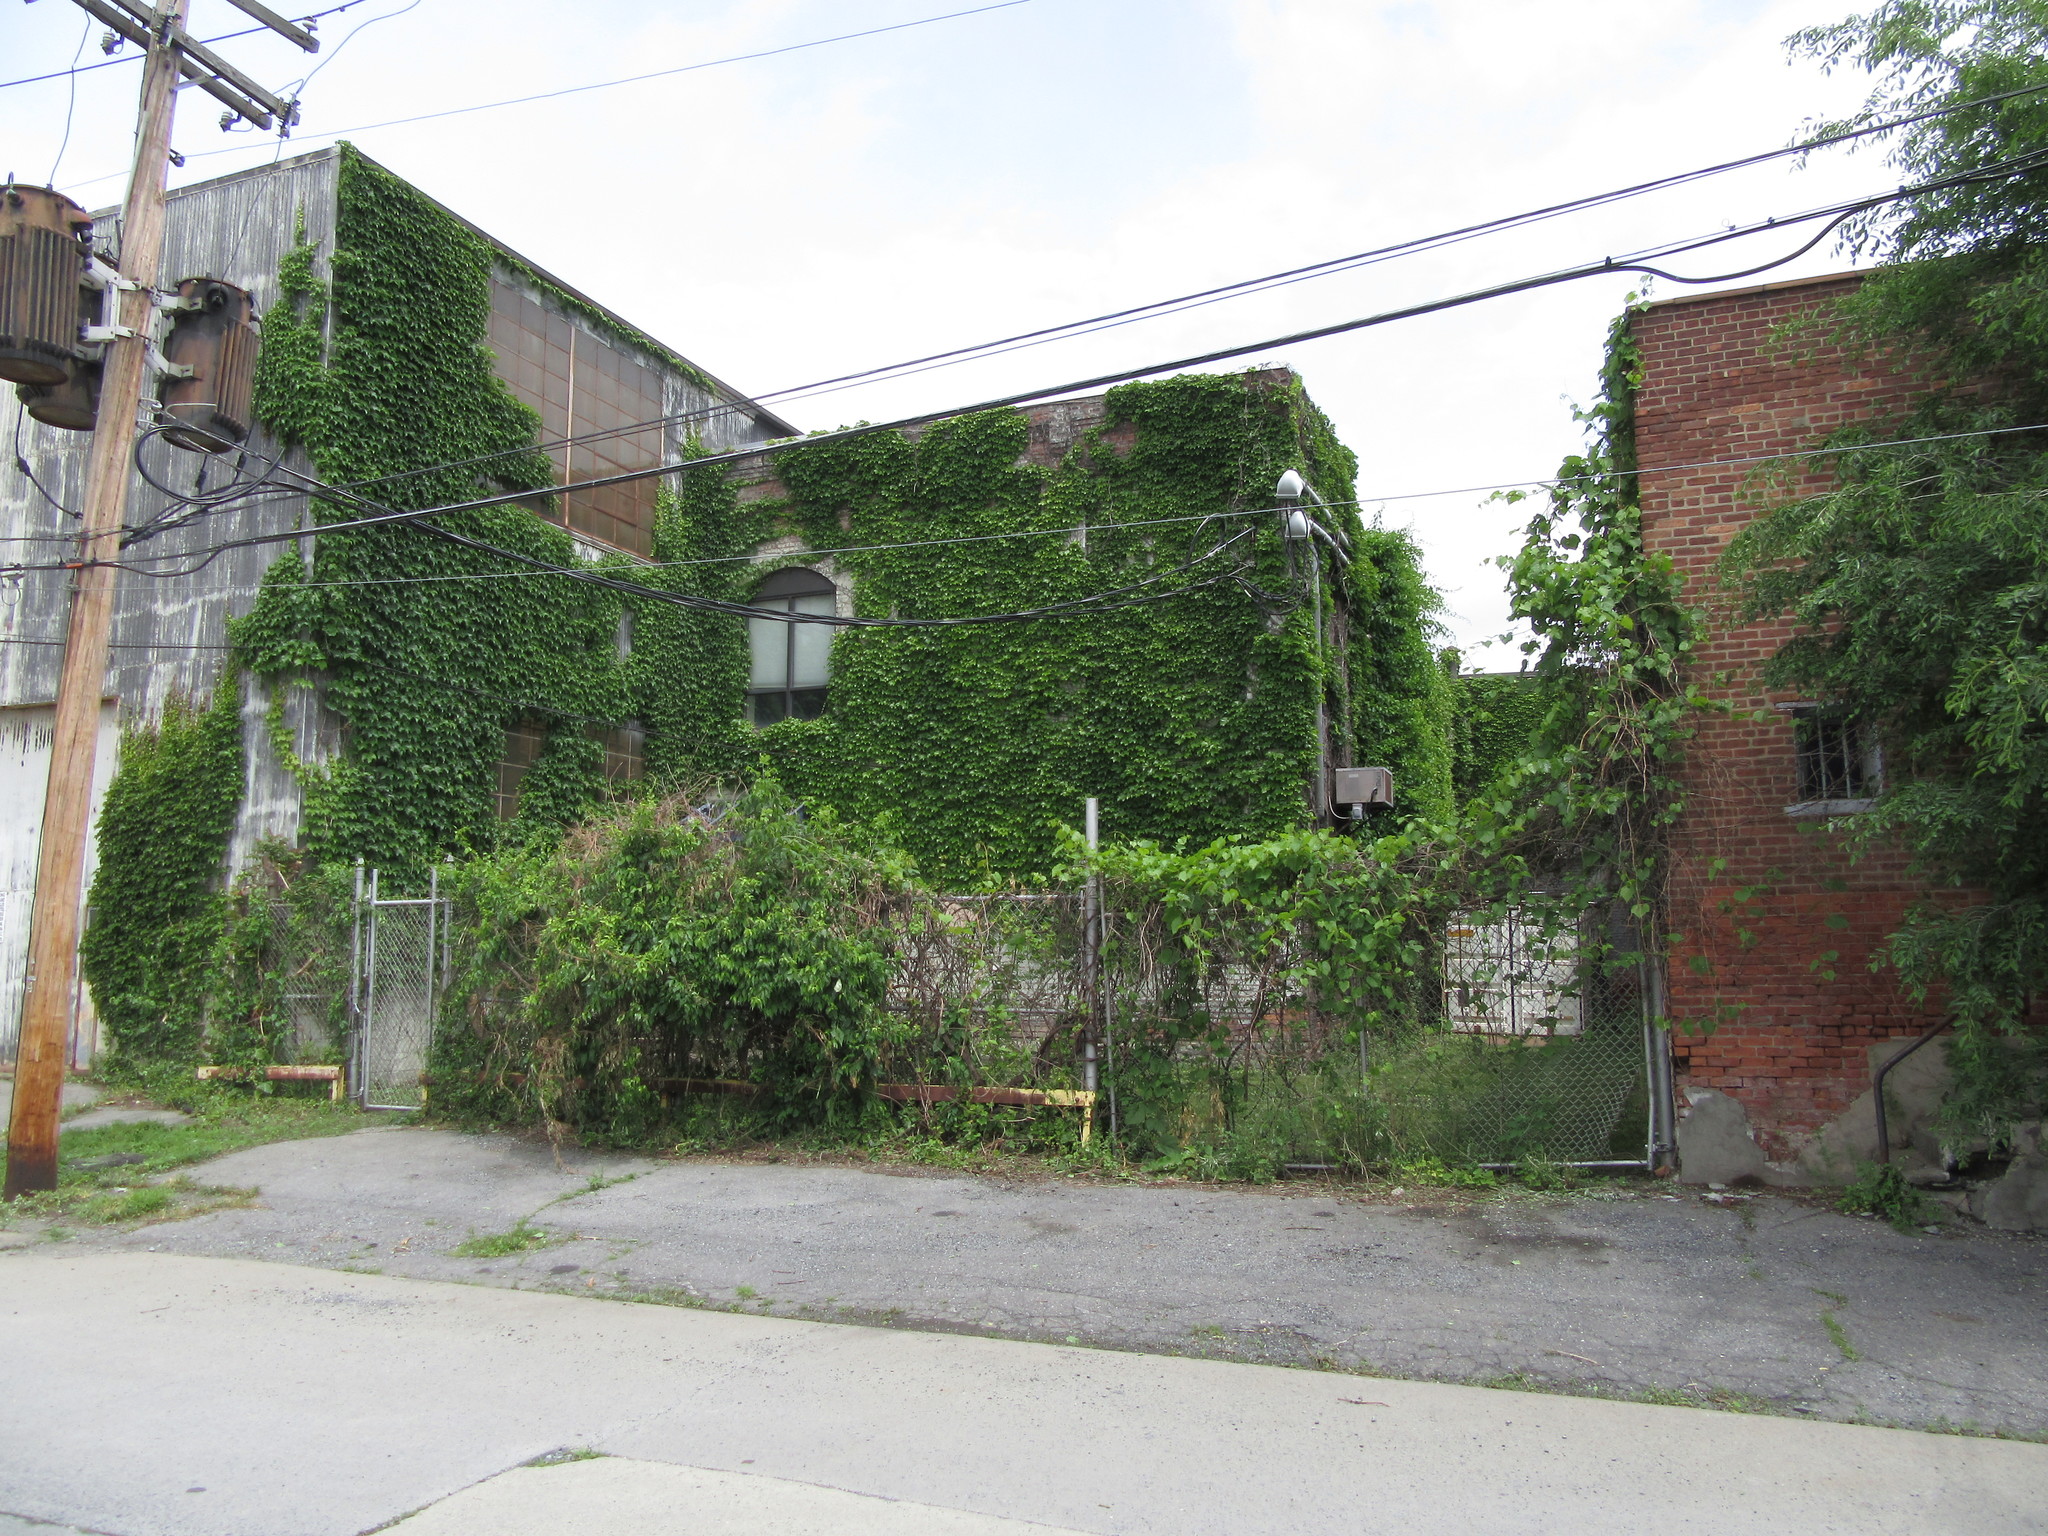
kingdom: Plantae
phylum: Tracheophyta
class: Magnoliopsida
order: Vitales
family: Vitaceae
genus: Parthenocissus
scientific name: Parthenocissus tricuspidata
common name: Boston ivy
